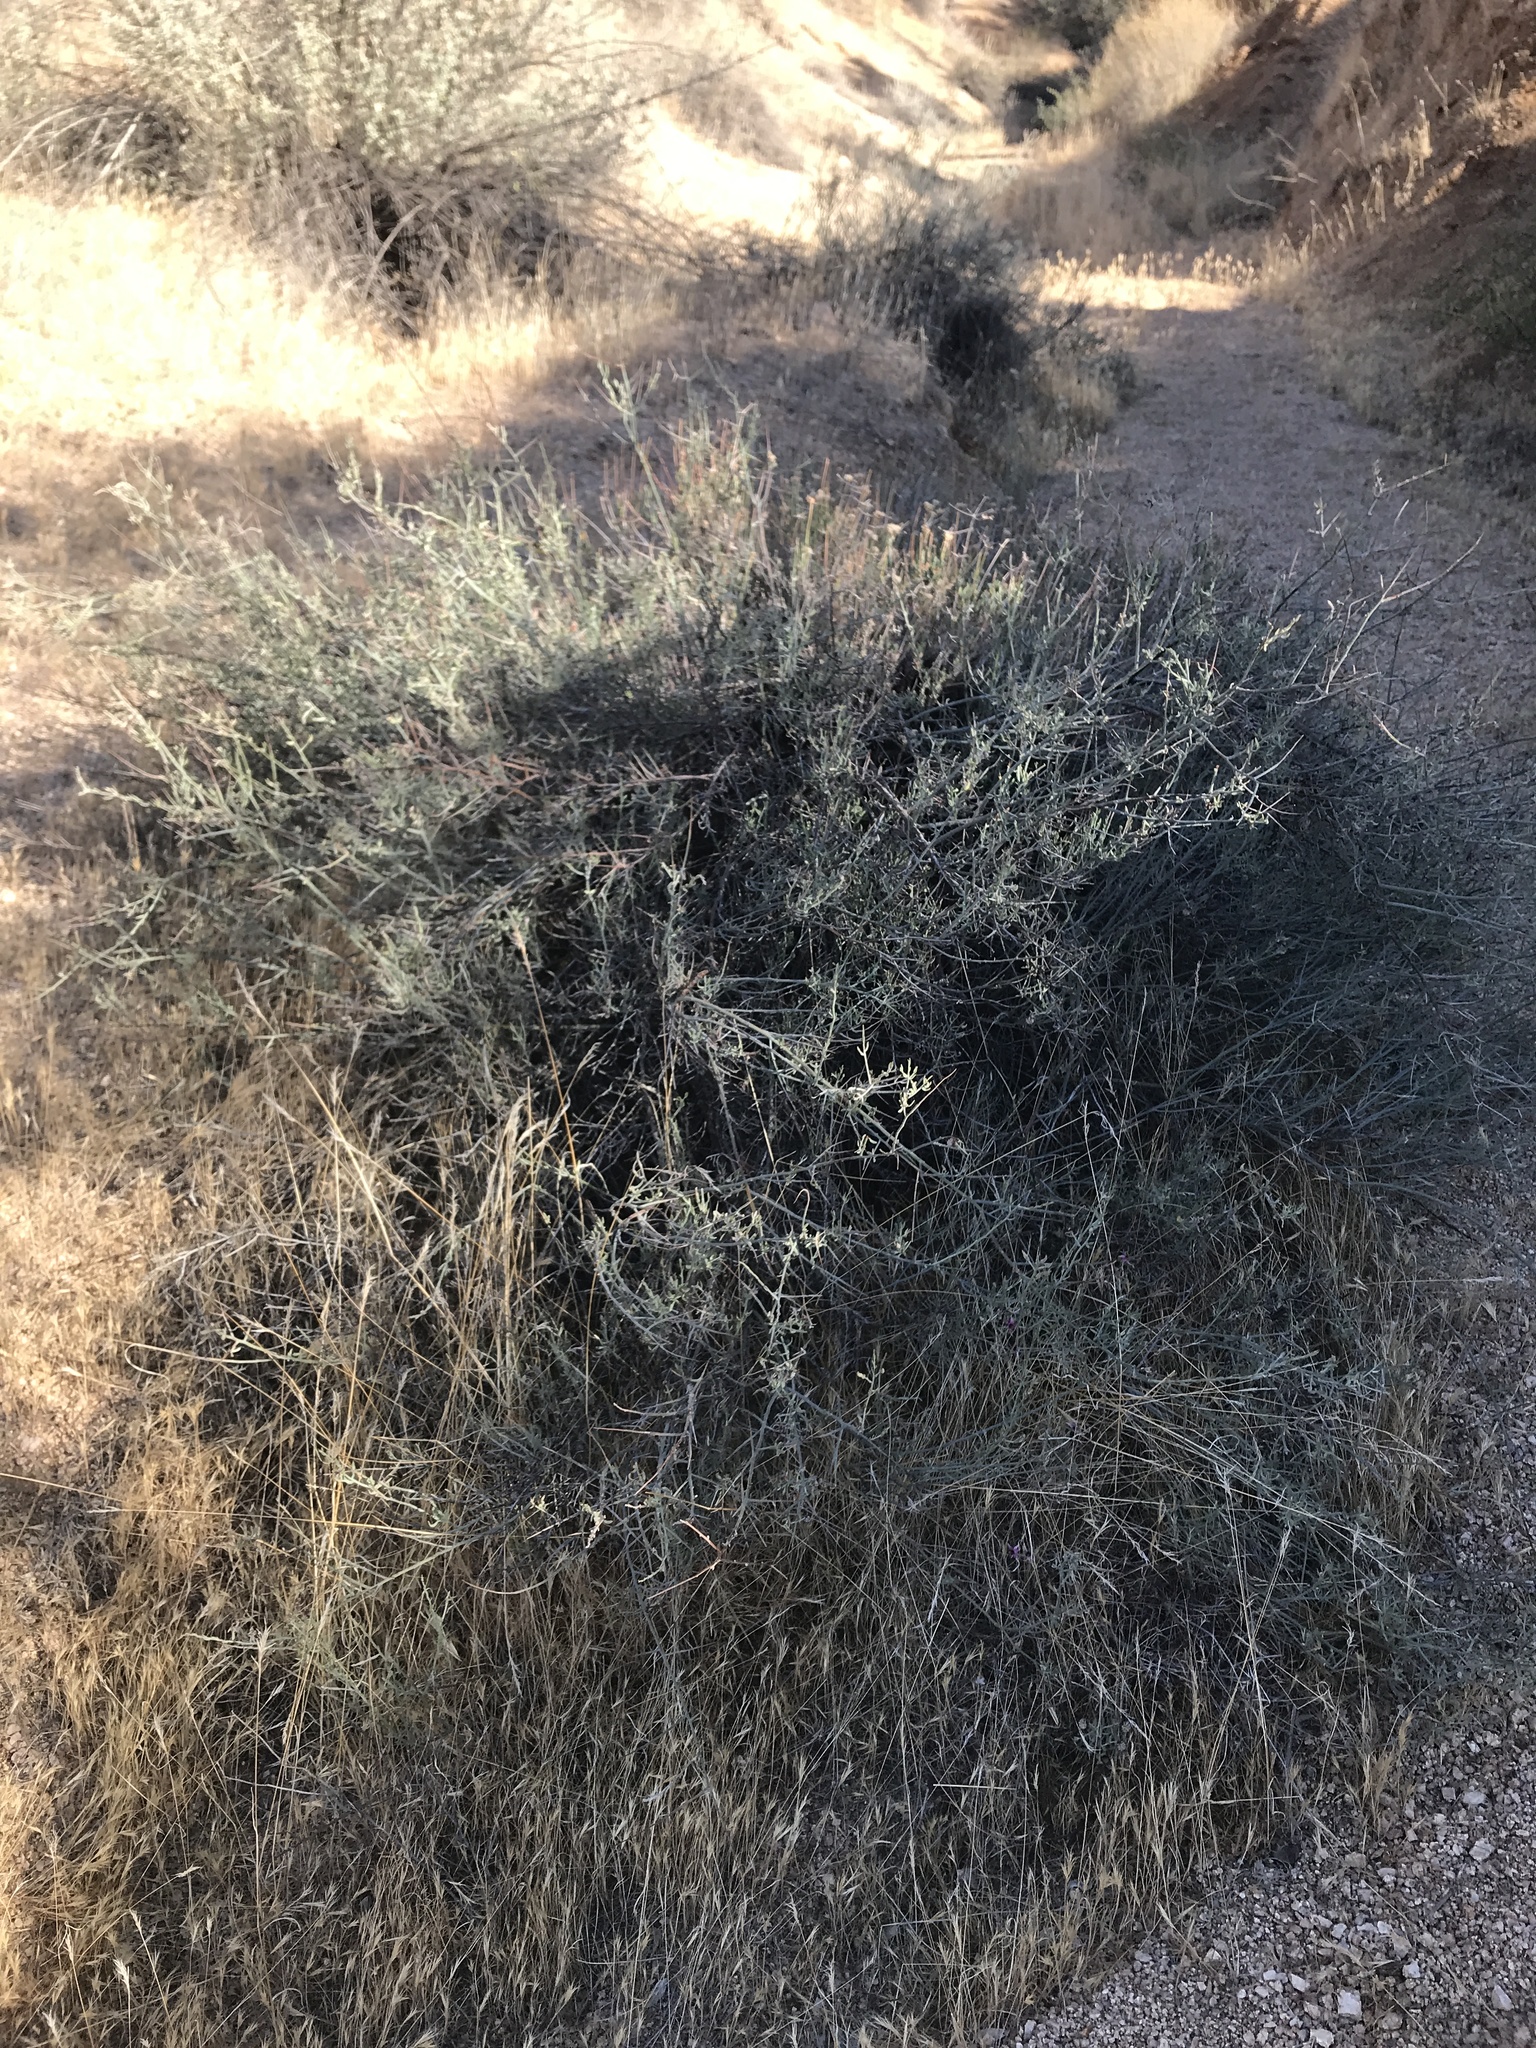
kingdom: Plantae
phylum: Tracheophyta
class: Magnoliopsida
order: Caryophyllales
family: Polygonaceae
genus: Eriogonum
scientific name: Eriogonum fasciculatum
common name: California wild buckwheat
